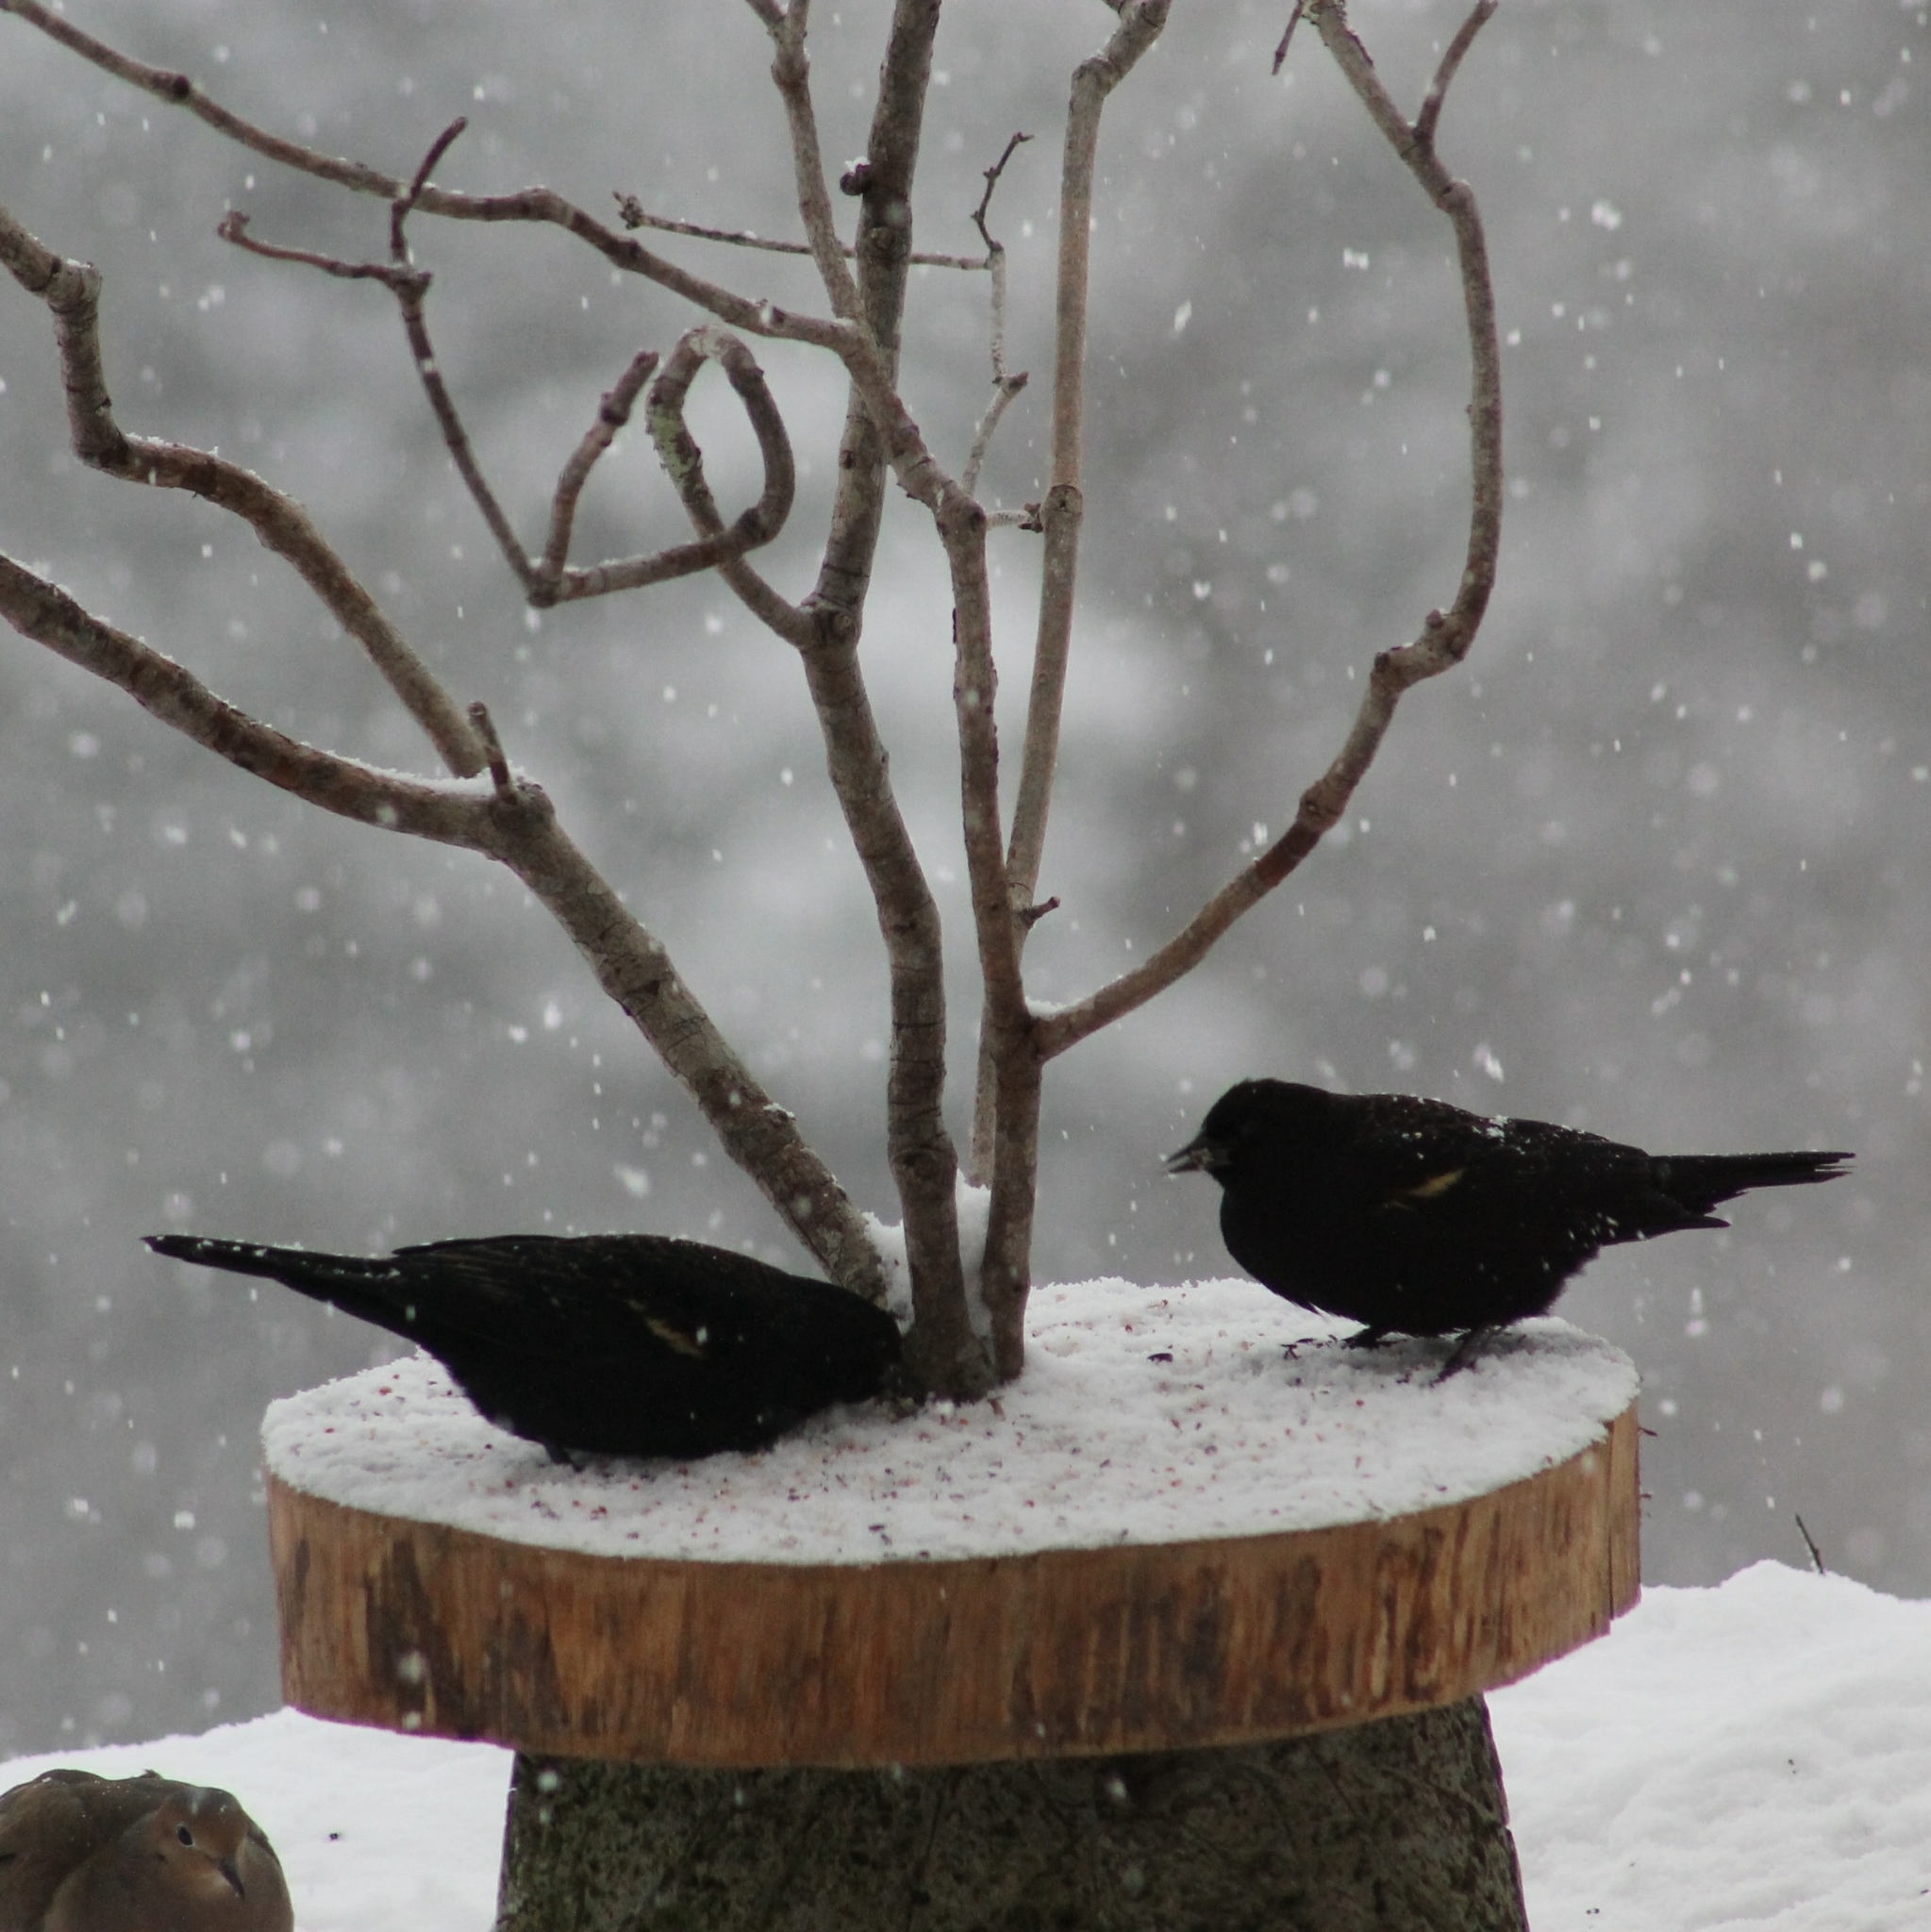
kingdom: Animalia
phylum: Chordata
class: Aves
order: Passeriformes
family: Icteridae
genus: Agelaius
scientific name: Agelaius phoeniceus
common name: Red-winged blackbird
